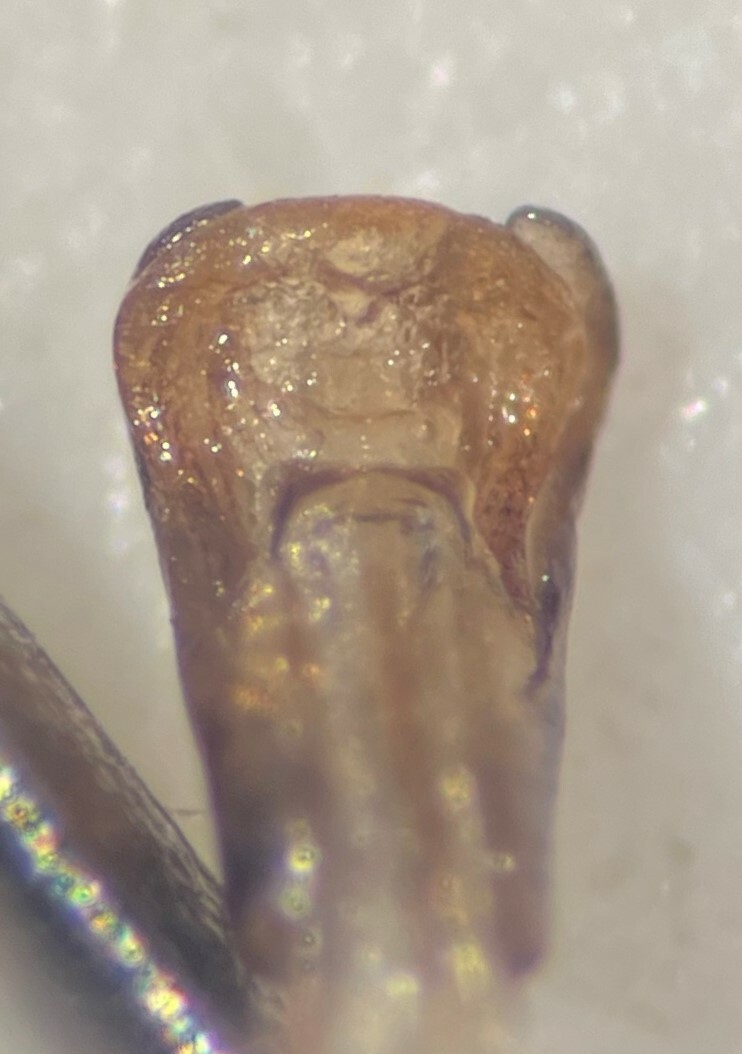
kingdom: Animalia
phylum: Arthropoda
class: Insecta
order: Hemiptera
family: Belostomatidae
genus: Belostoma
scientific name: Belostoma fusciventre
